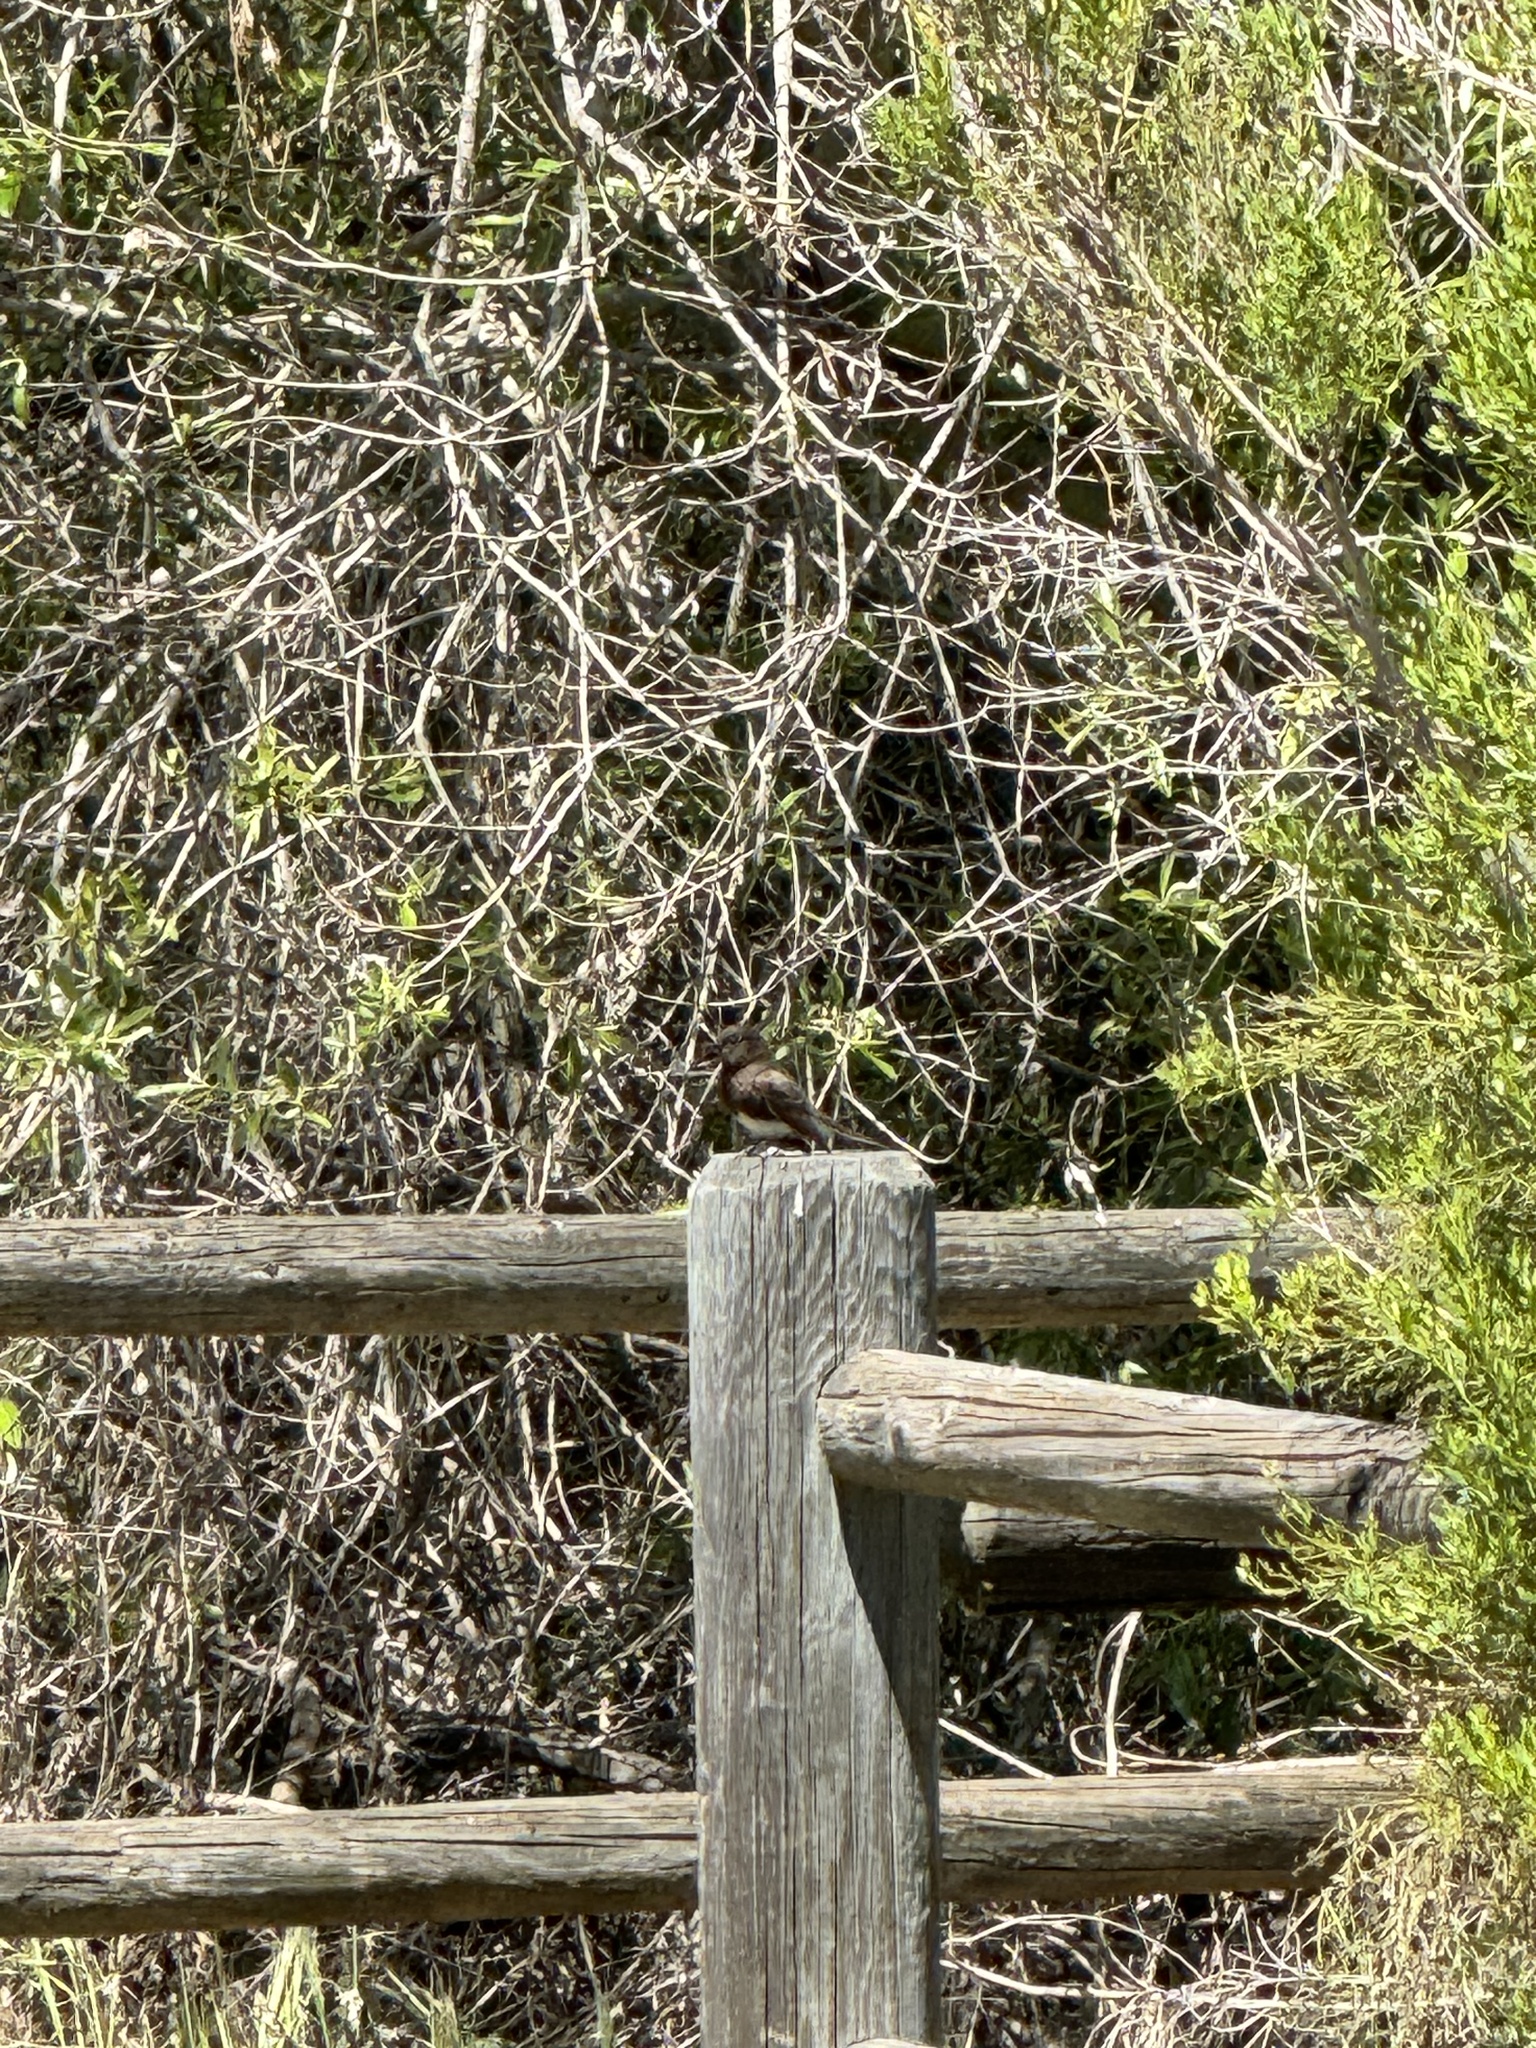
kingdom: Animalia
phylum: Chordata
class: Aves
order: Passeriformes
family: Tyrannidae
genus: Sayornis
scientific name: Sayornis nigricans
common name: Black phoebe
